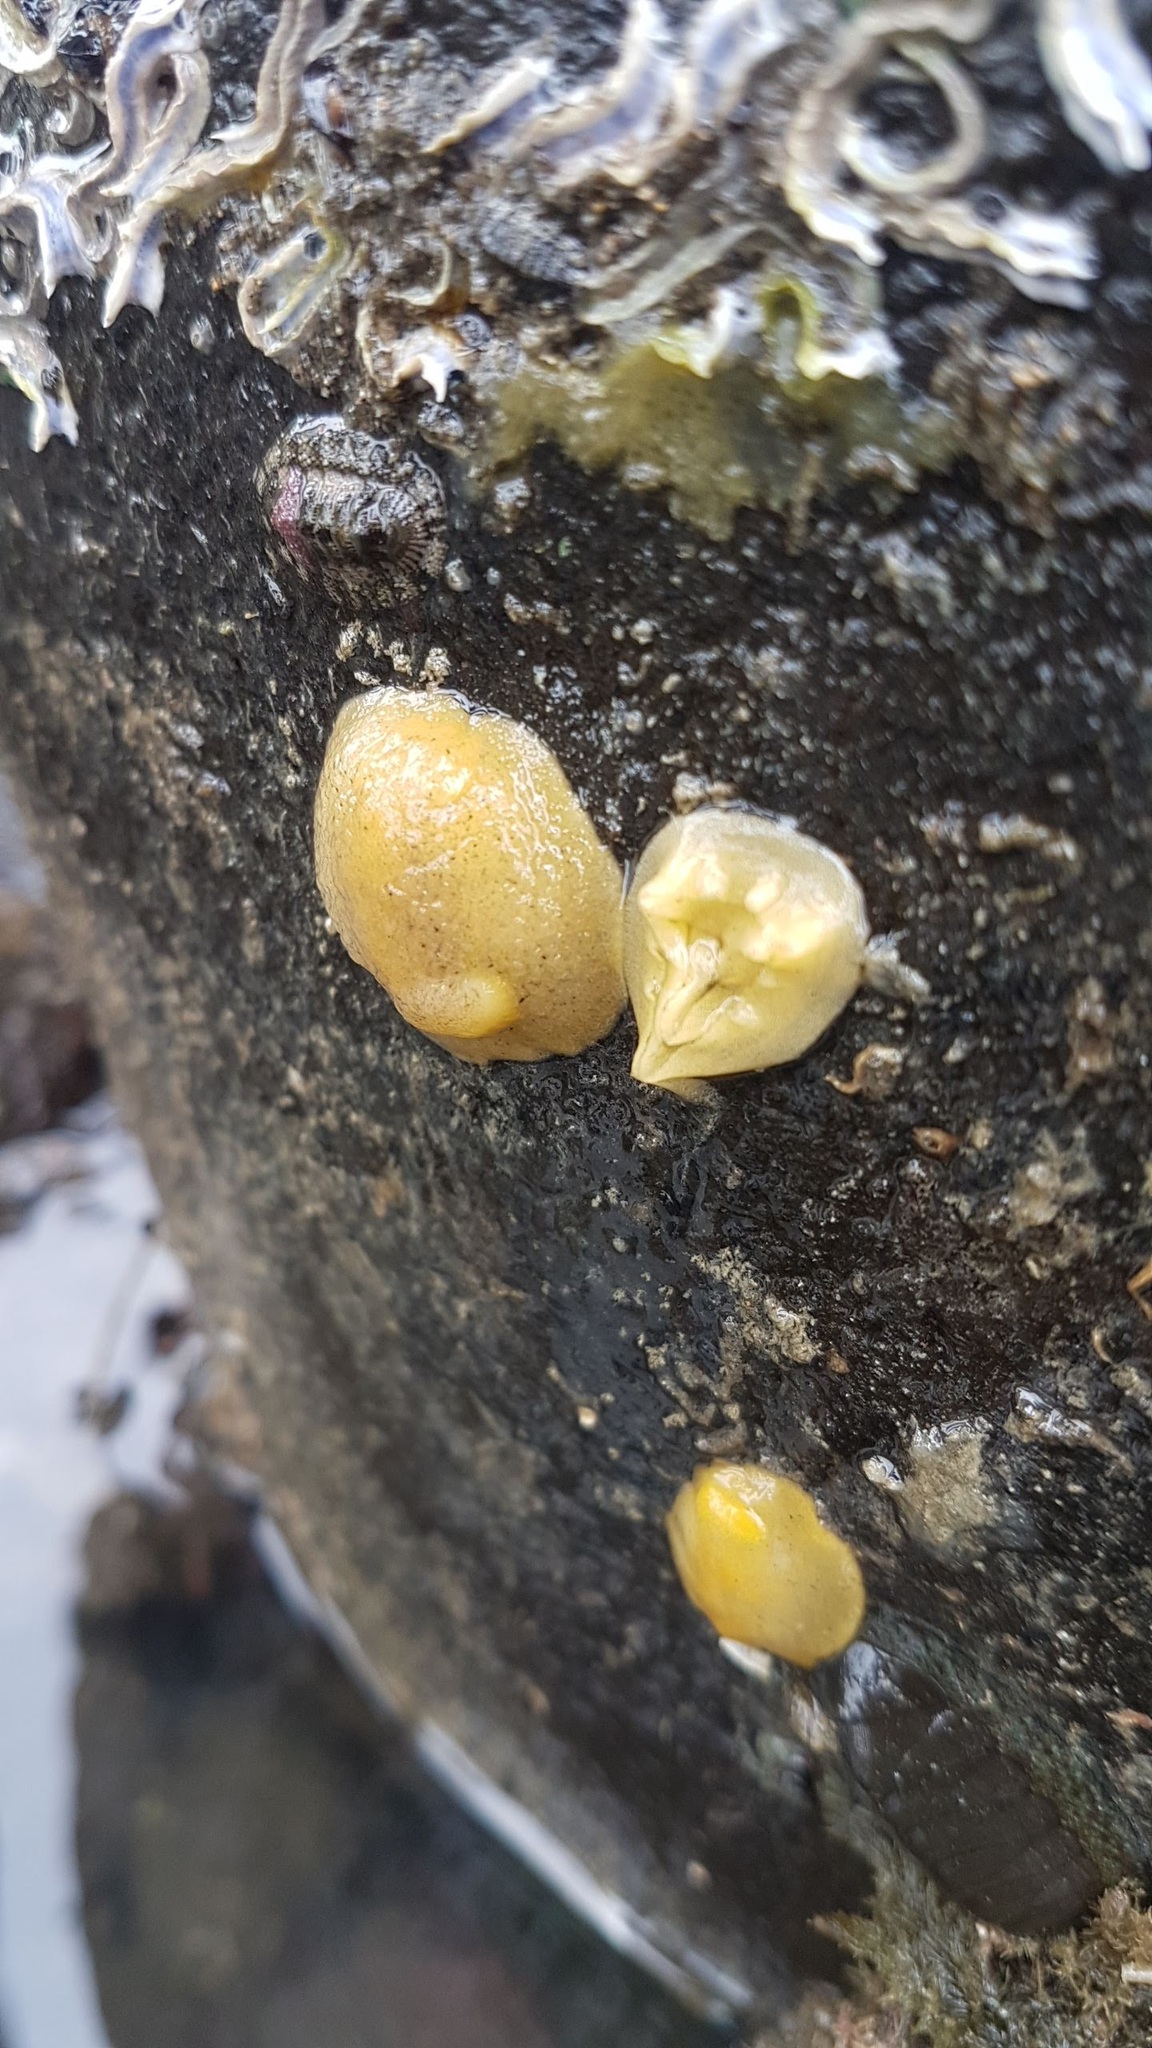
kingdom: Animalia
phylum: Mollusca
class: Gastropoda
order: Nudibranchia
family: Dorididae
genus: Doriopsis
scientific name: Doriopsis granulosa
